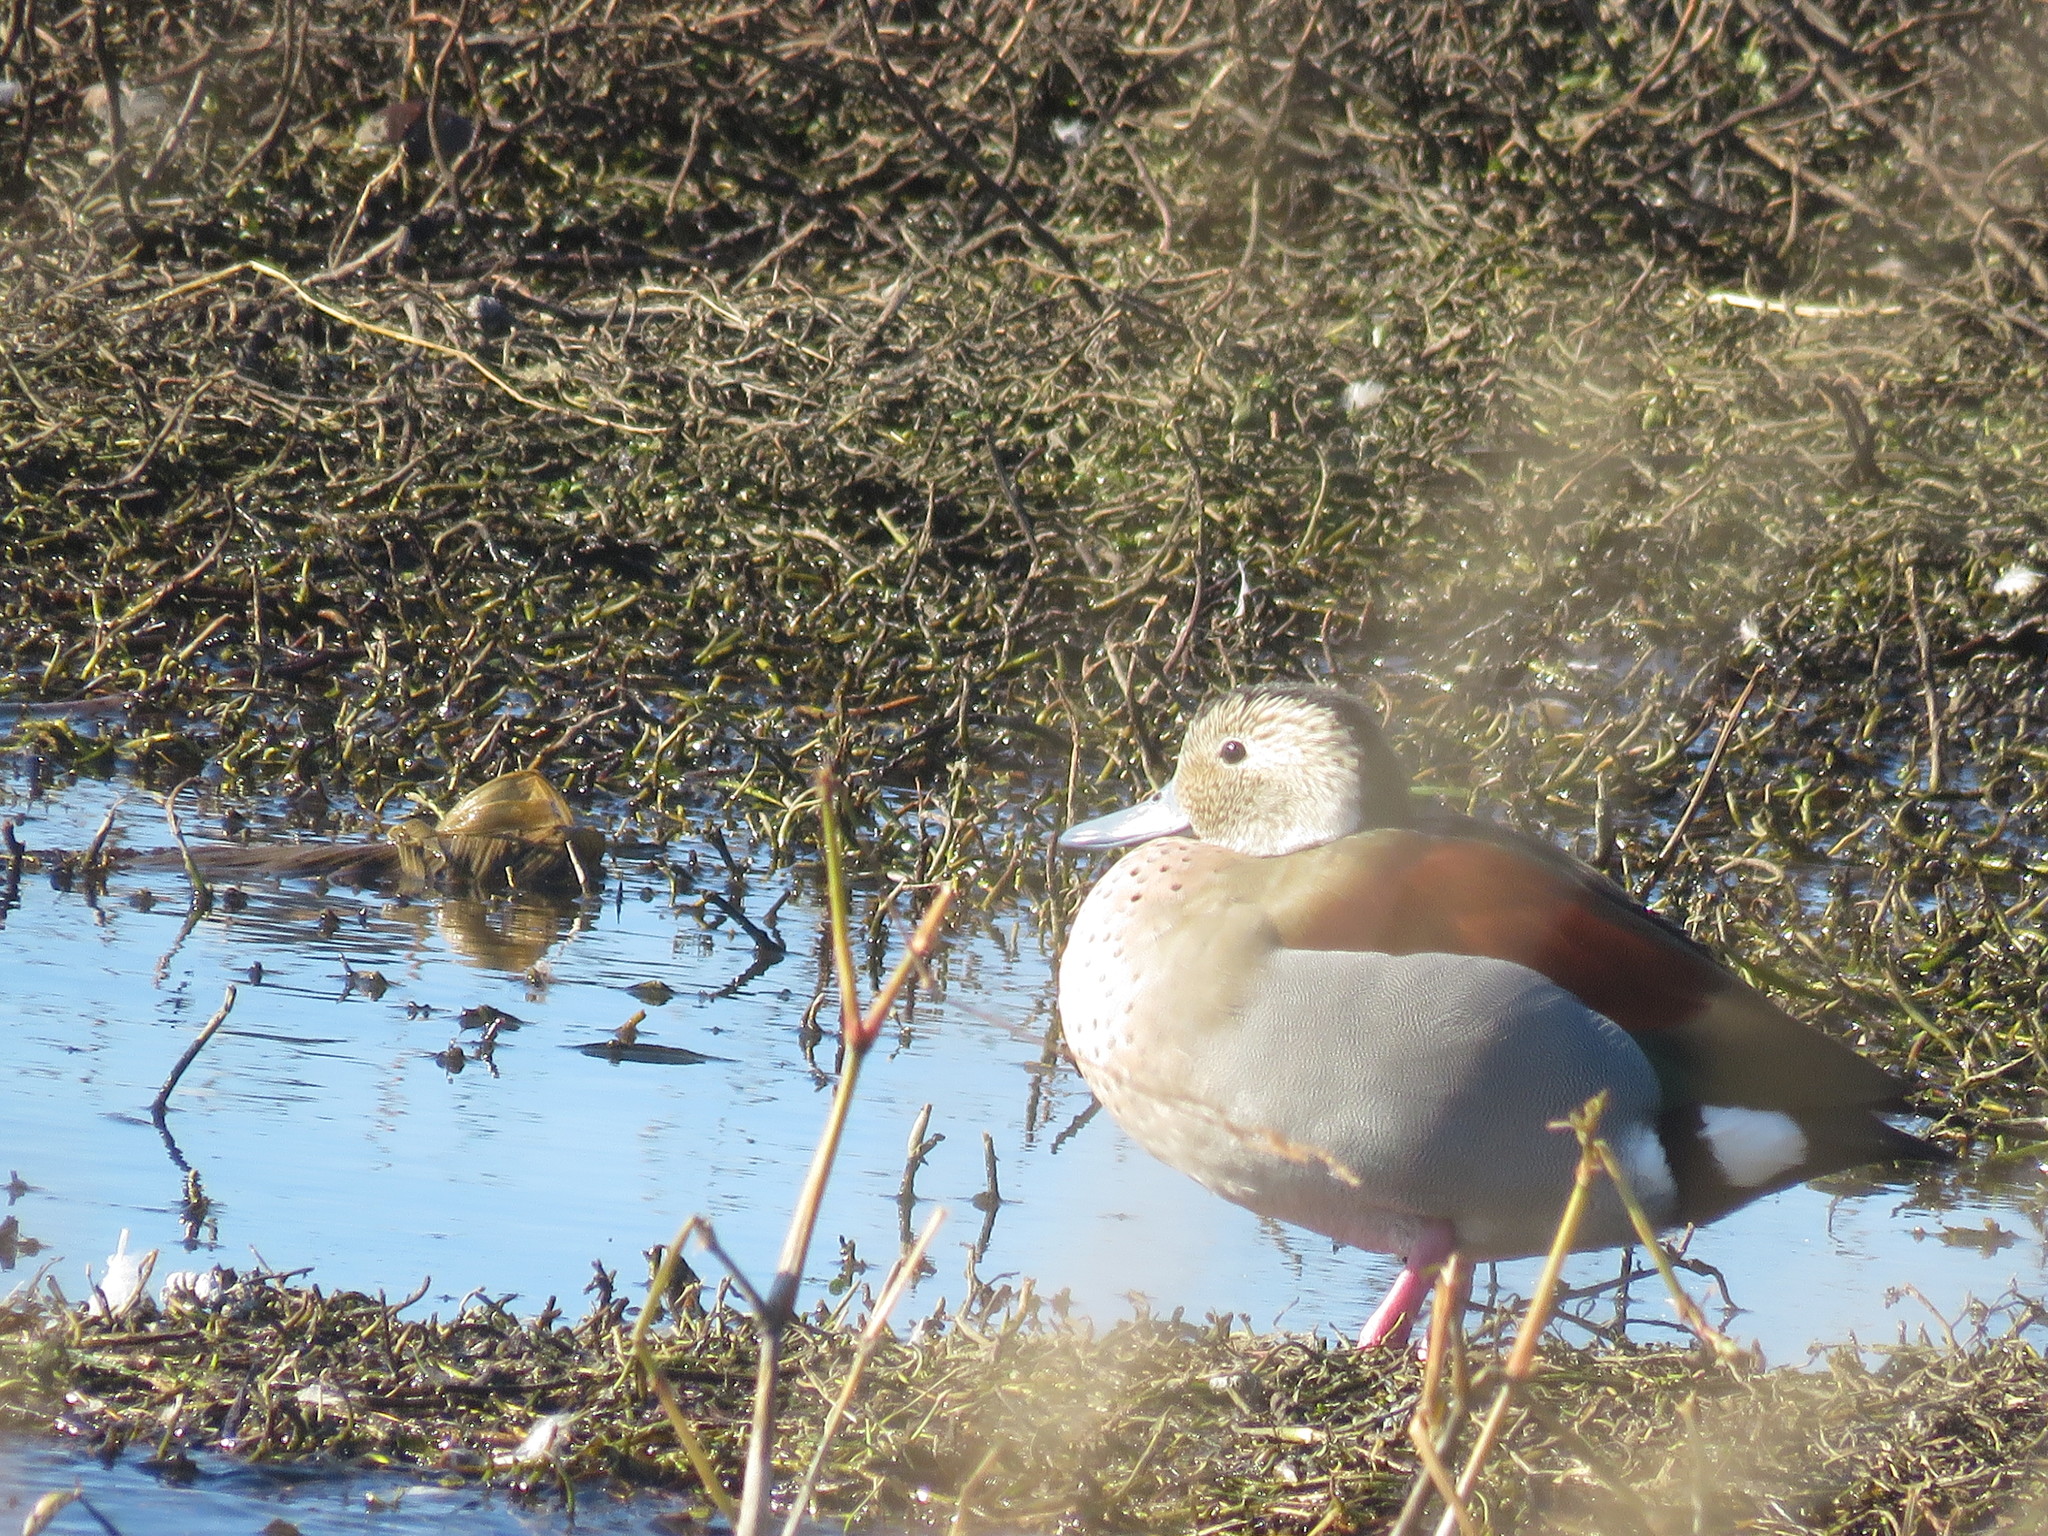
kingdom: Animalia
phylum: Chordata
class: Aves
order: Anseriformes
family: Anatidae
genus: Callonetta
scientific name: Callonetta leucophrys
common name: Ringed teal
